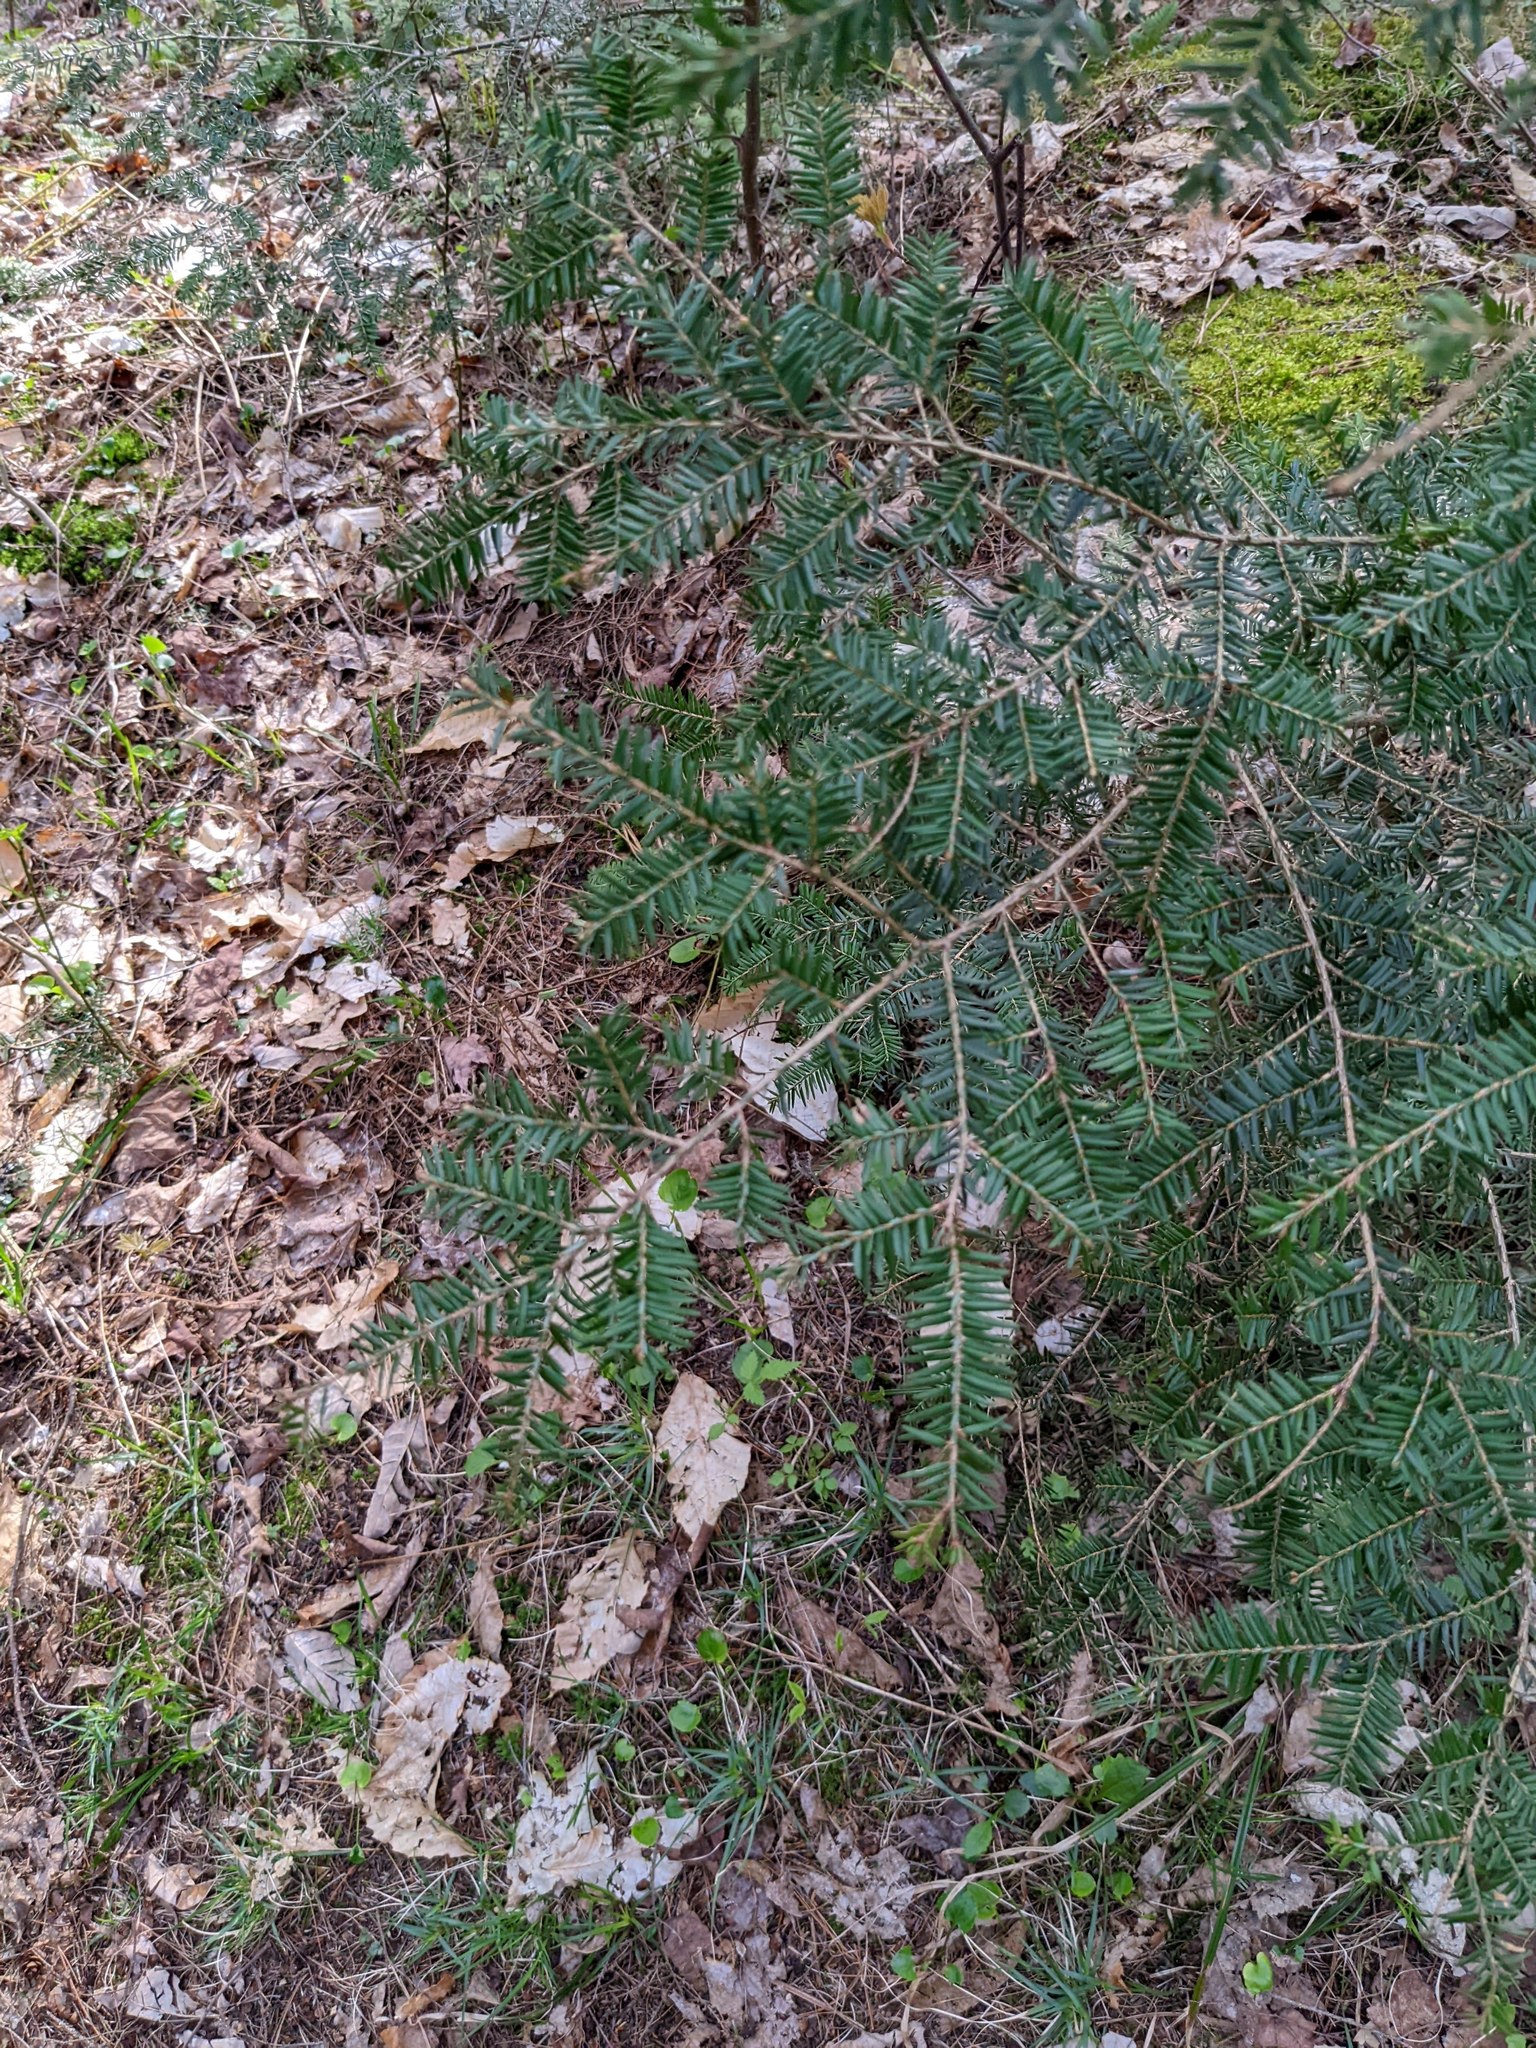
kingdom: Plantae
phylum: Tracheophyta
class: Pinopsida
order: Pinales
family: Pinaceae
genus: Tsuga
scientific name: Tsuga canadensis
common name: Eastern hemlock
